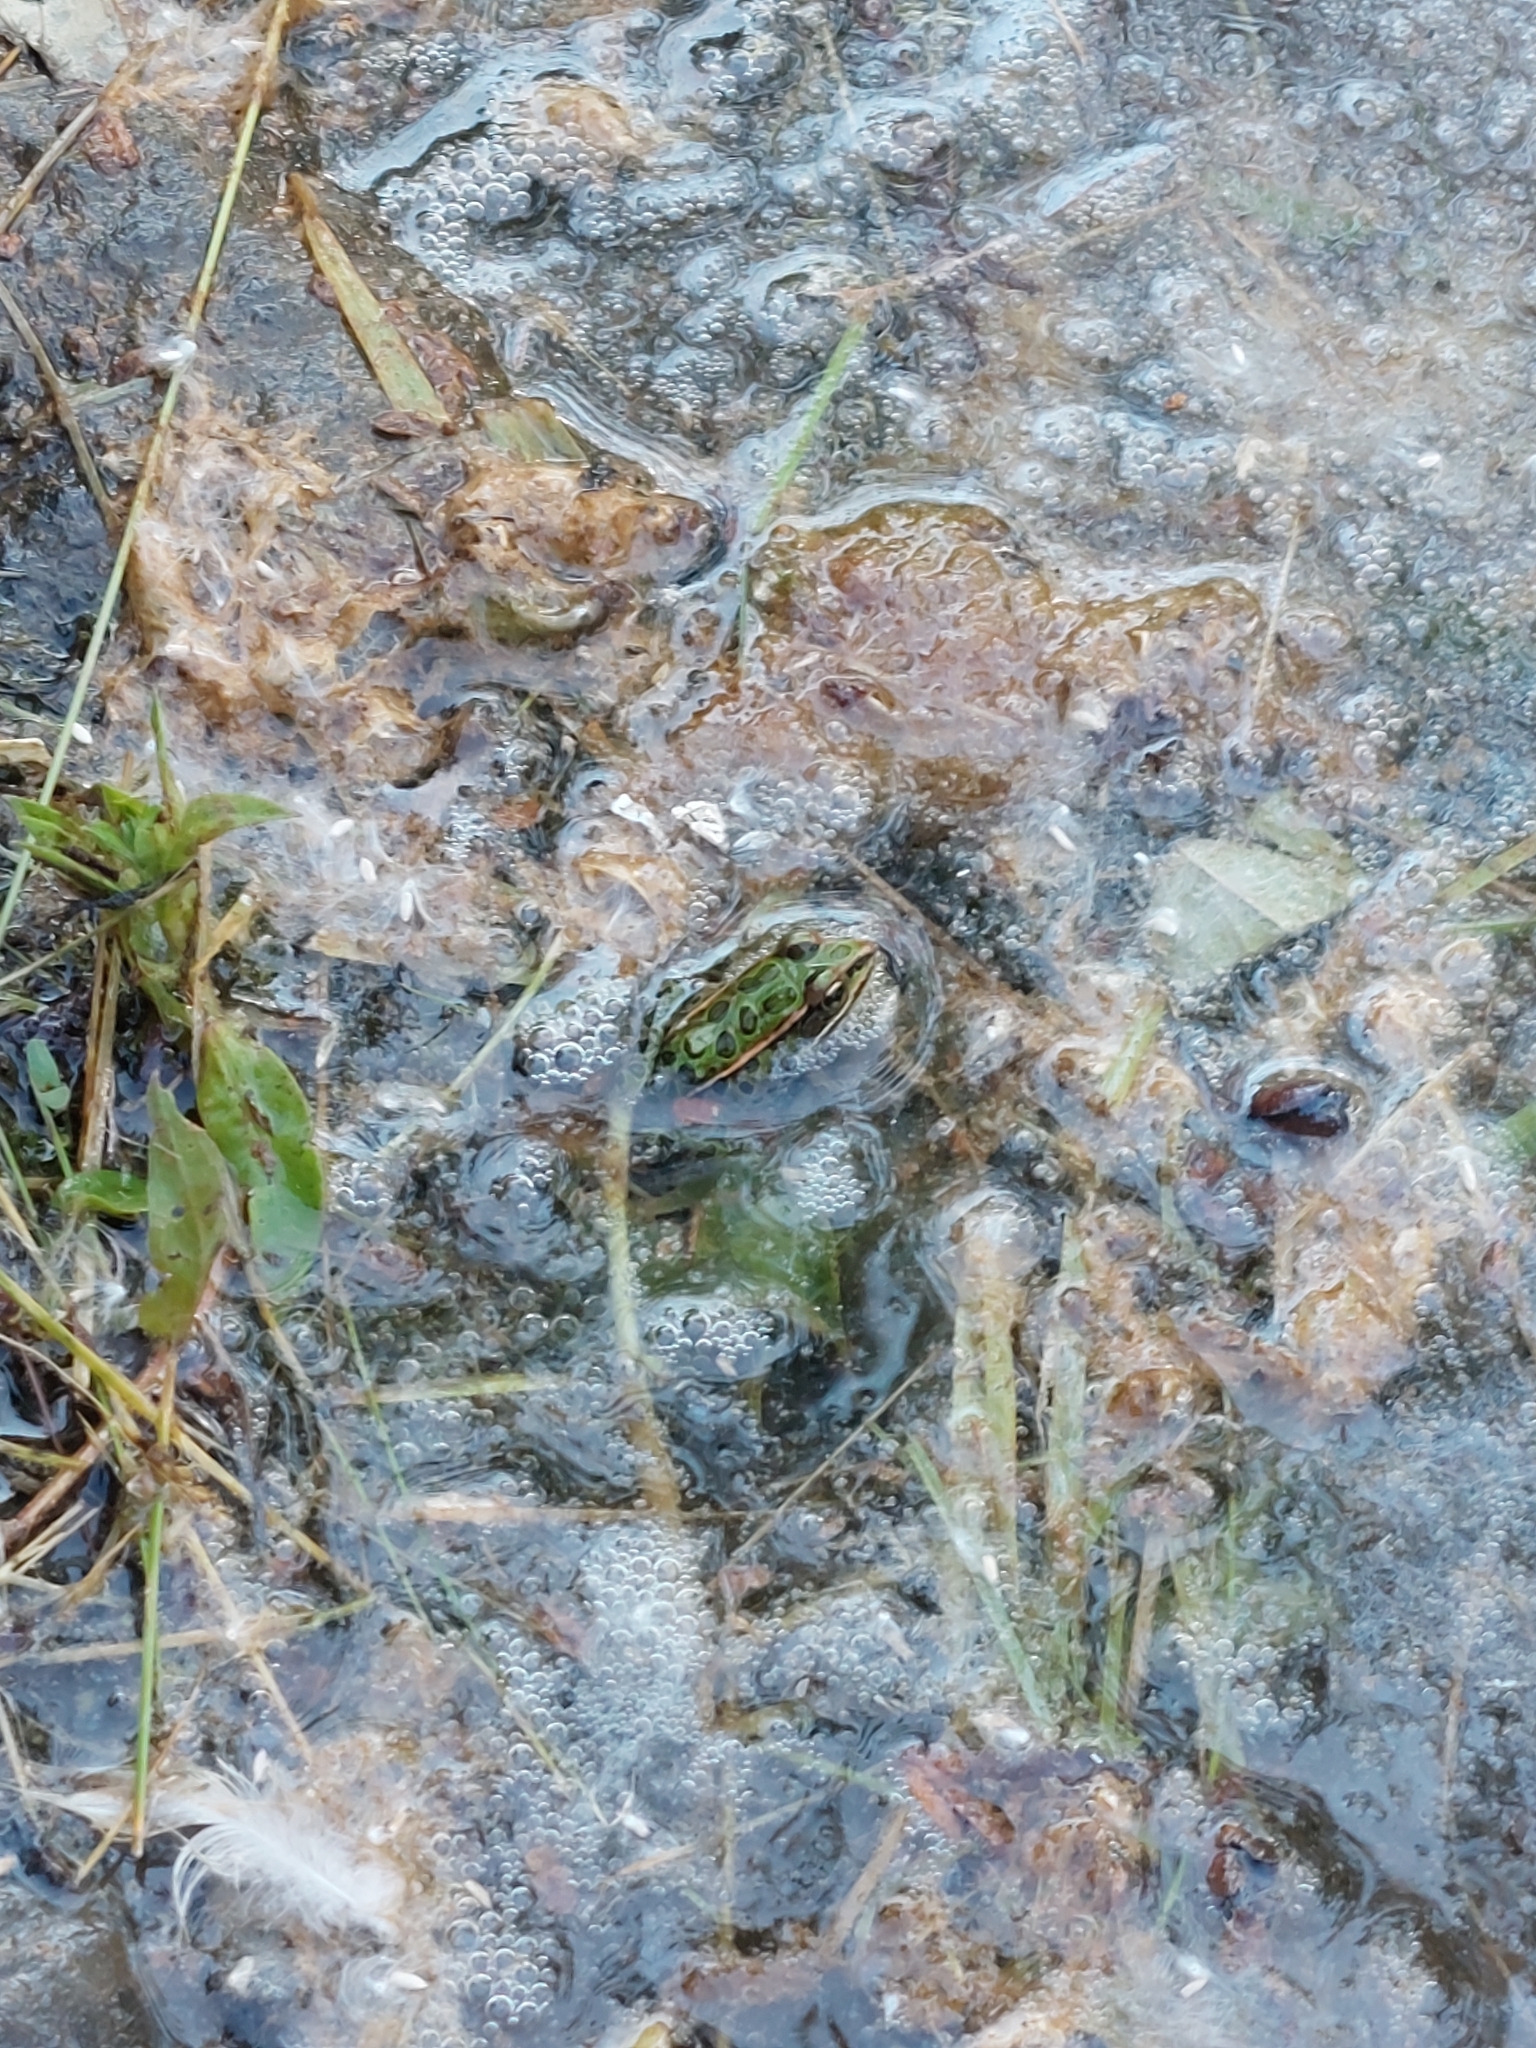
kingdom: Animalia
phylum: Chordata
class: Amphibia
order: Anura
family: Ranidae
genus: Lithobates
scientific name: Lithobates pipiens
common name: Northern leopard frog
